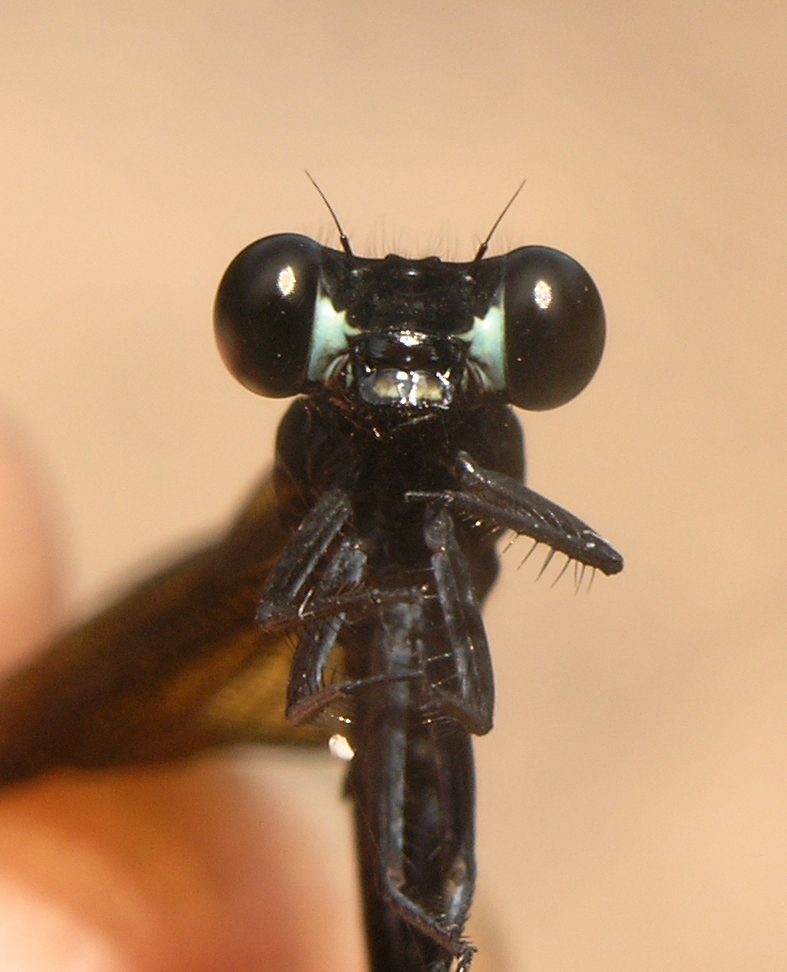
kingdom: Animalia
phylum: Arthropoda
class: Insecta
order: Odonata
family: Euphaeidae
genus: Euphaea
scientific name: Euphaea cyanopogon
